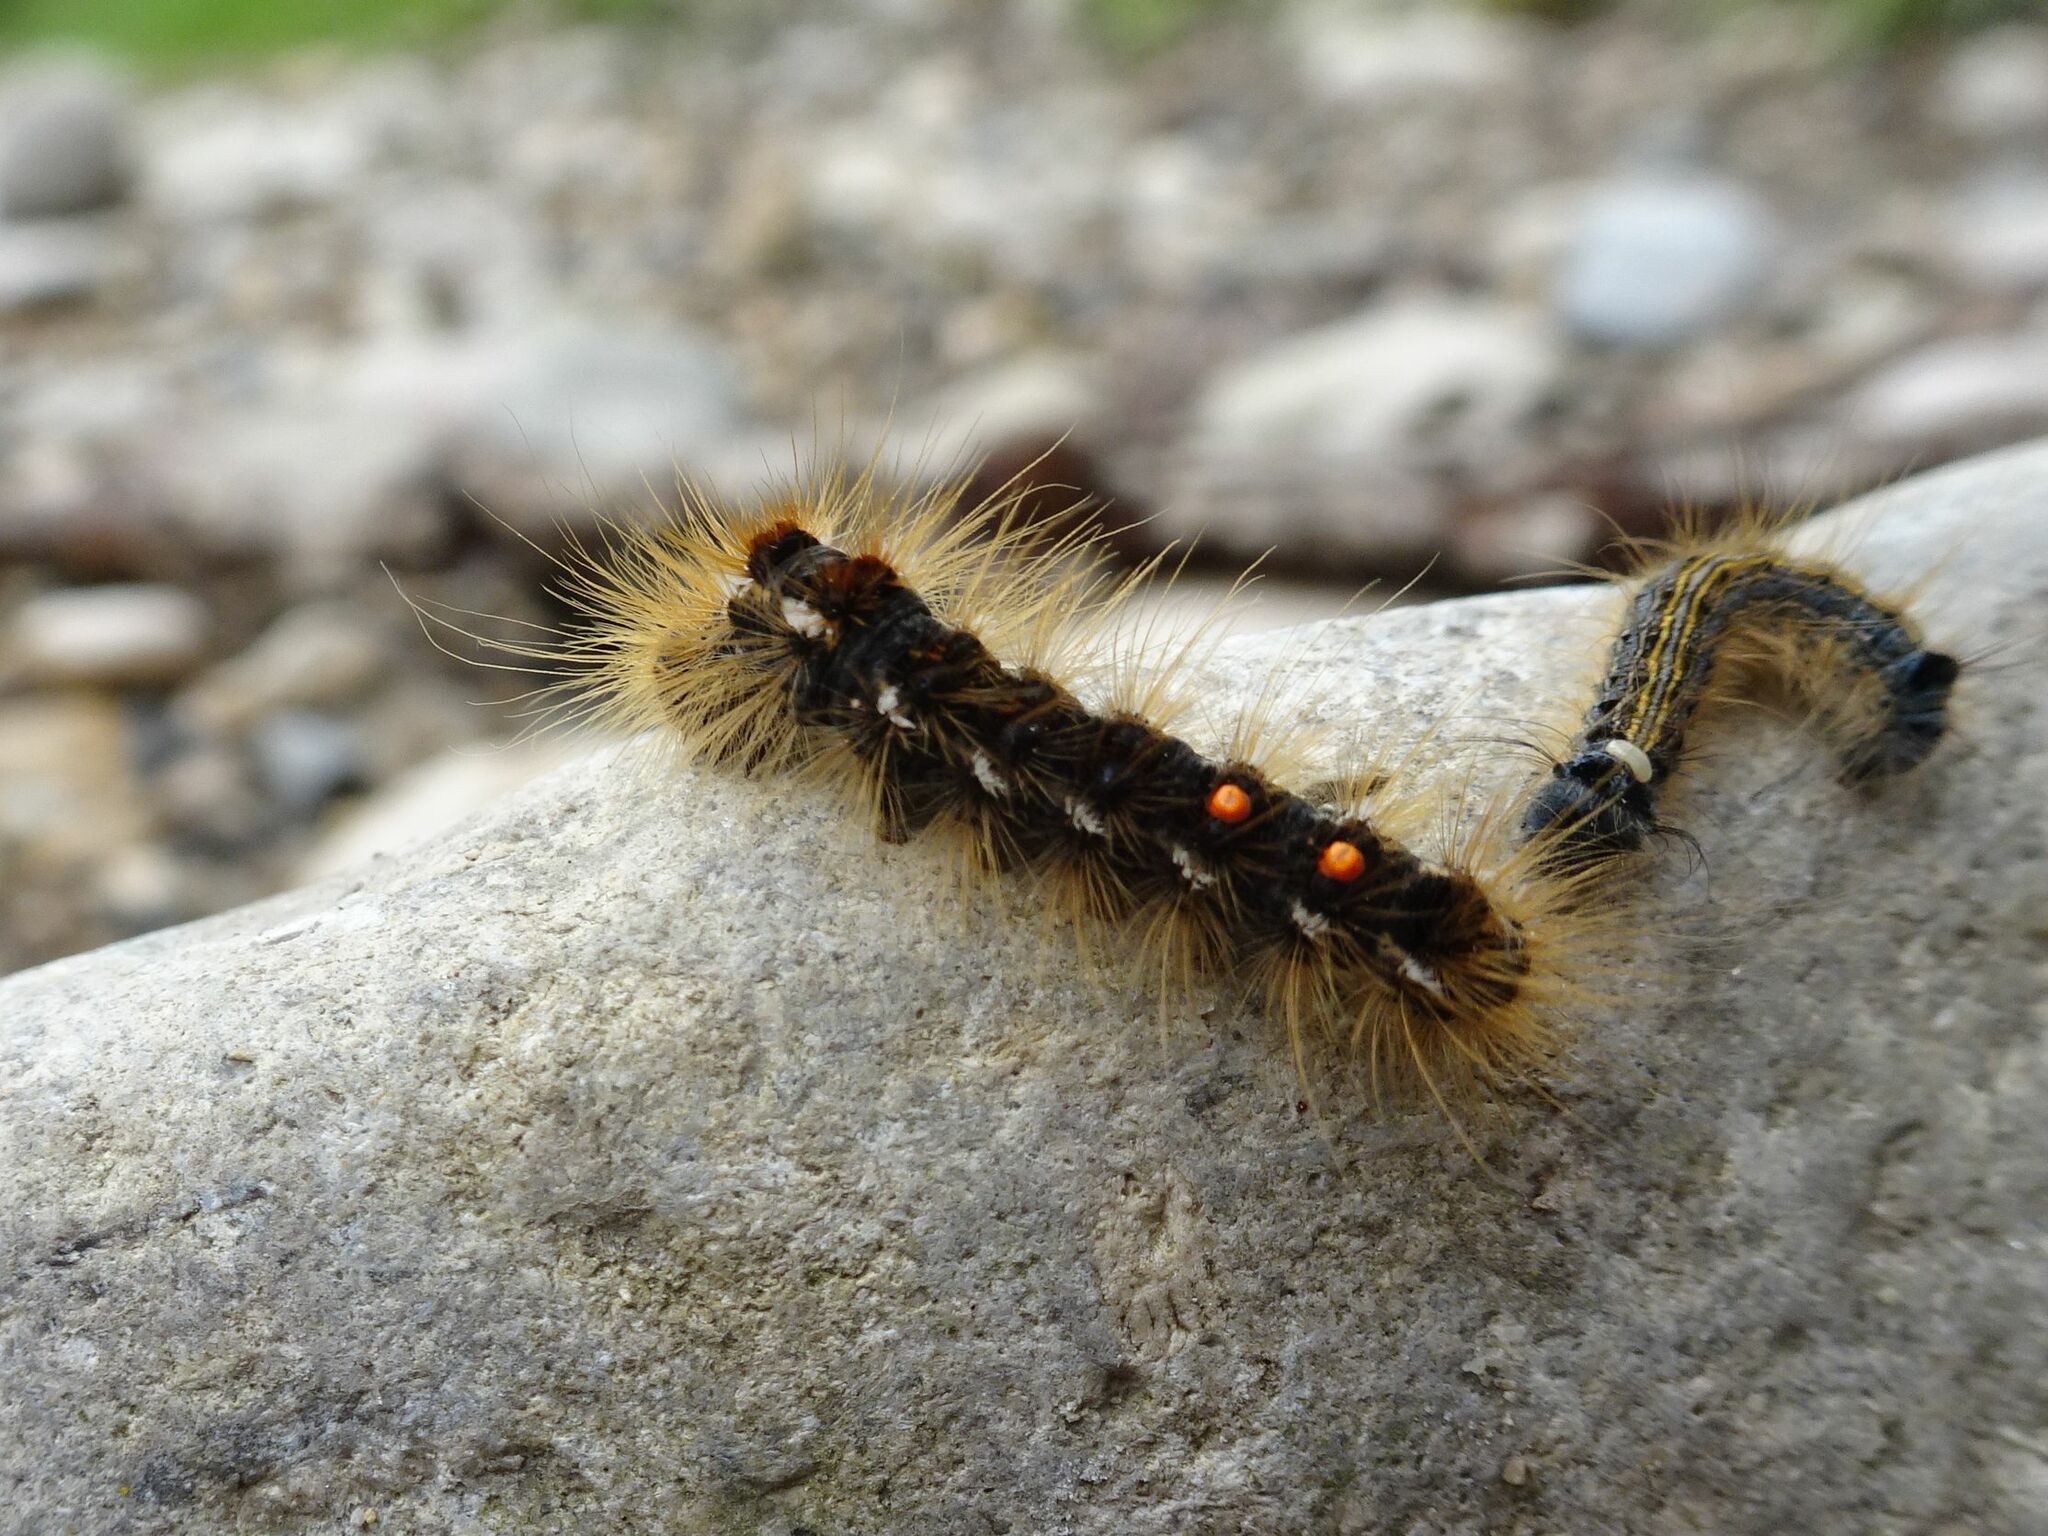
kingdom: Animalia
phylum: Arthropoda
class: Insecta
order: Lepidoptera
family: Erebidae
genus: Euproctis
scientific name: Euproctis chrysorrhoea
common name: Brown-tail
